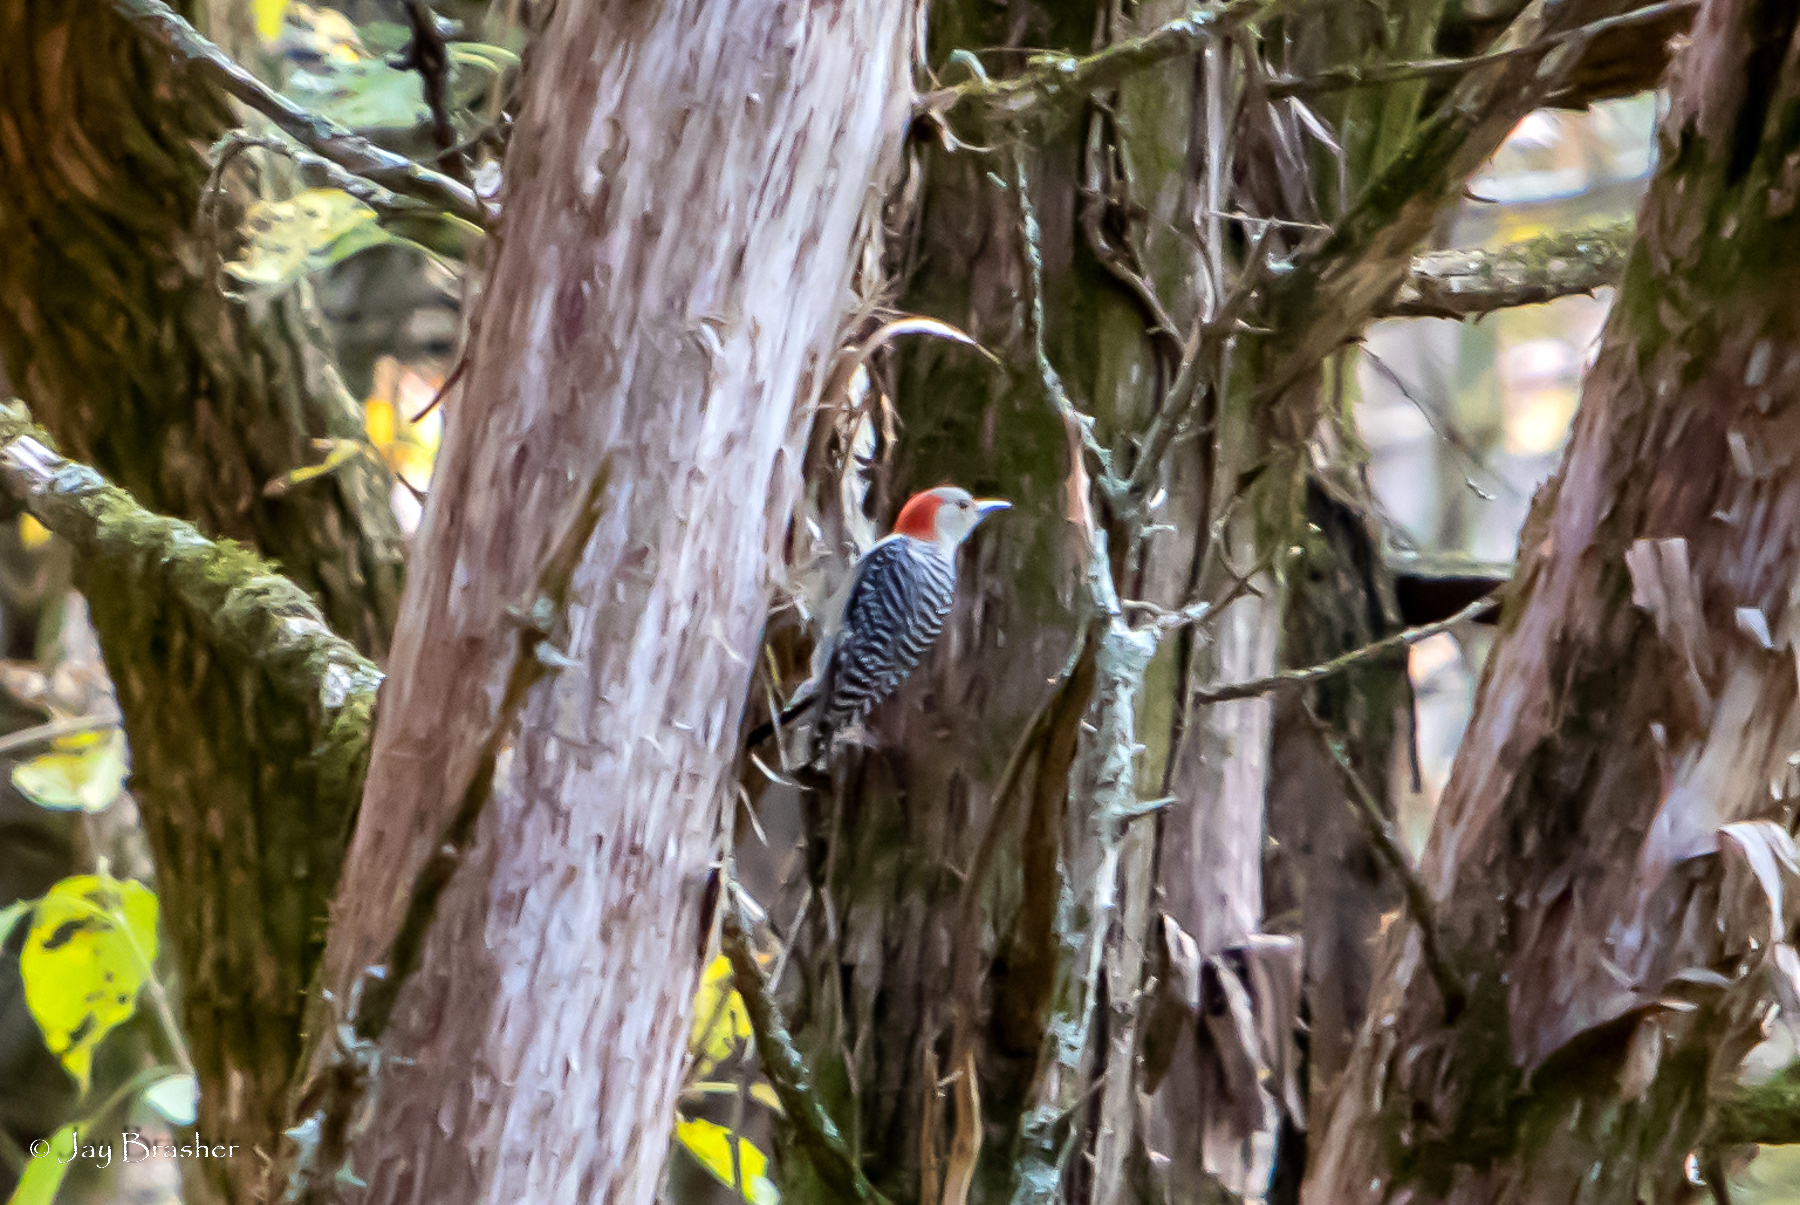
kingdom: Animalia
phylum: Chordata
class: Aves
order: Piciformes
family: Picidae
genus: Melanerpes
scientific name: Melanerpes carolinus
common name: Red-bellied woodpecker
